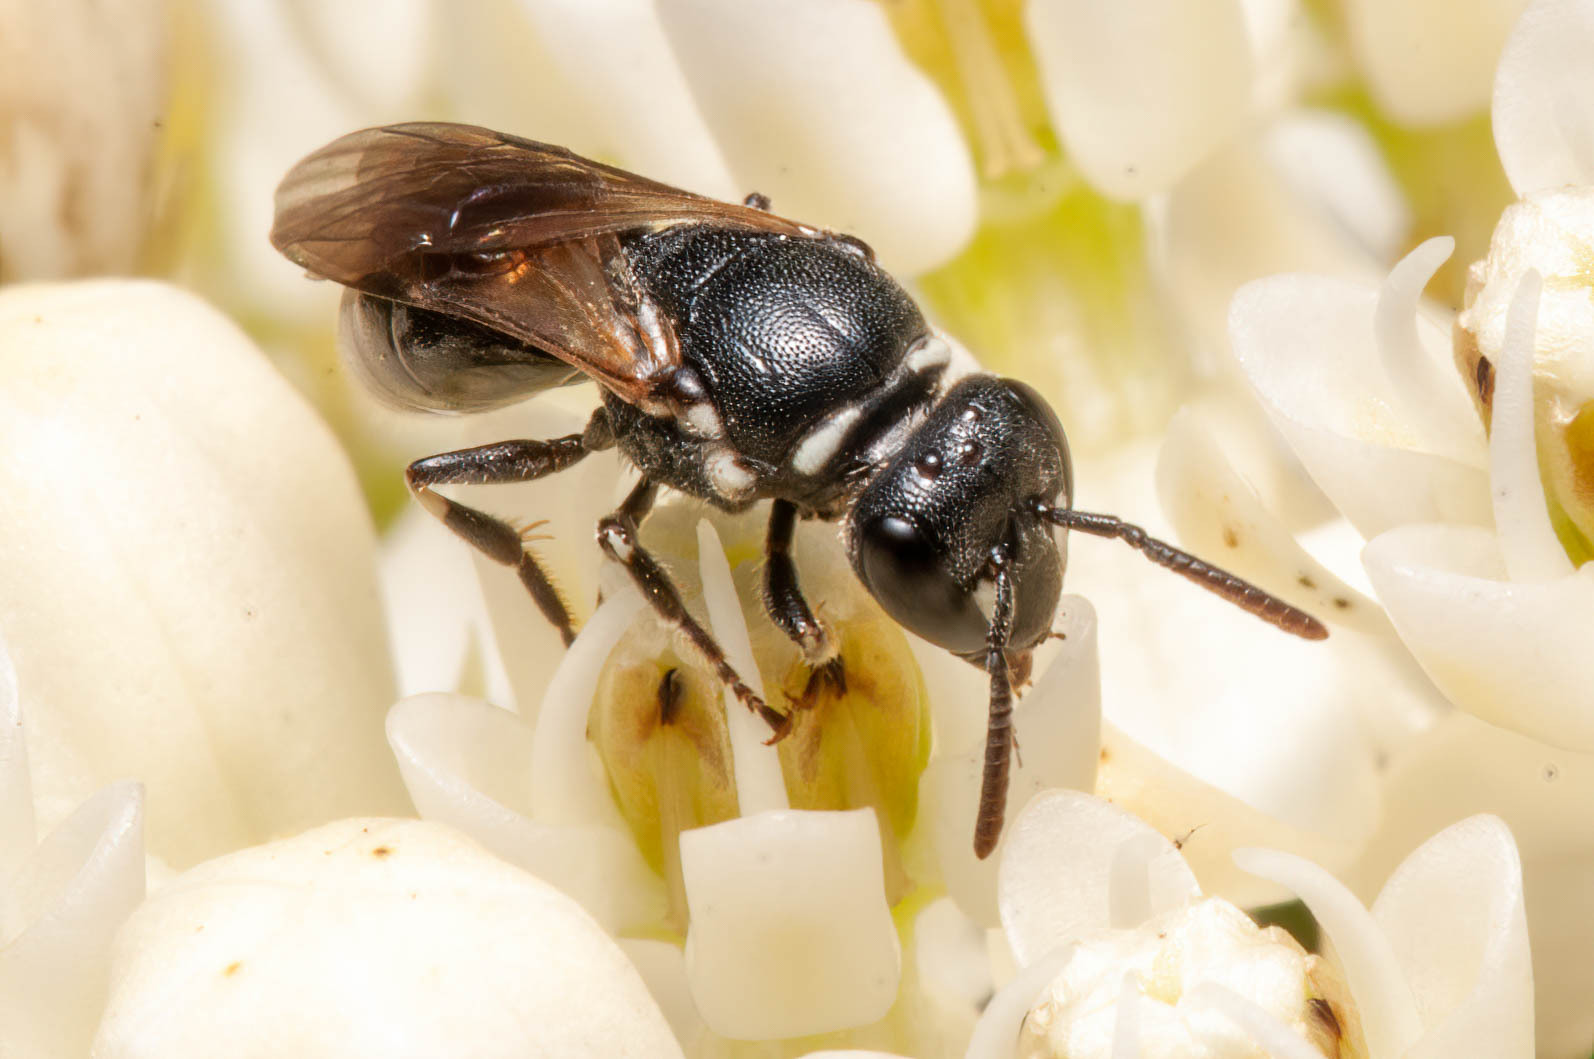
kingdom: Animalia
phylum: Arthropoda
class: Insecta
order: Hymenoptera
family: Colletidae
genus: Hylaeus
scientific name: Hylaeus leptocephalus
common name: Slender-faced masked bee
